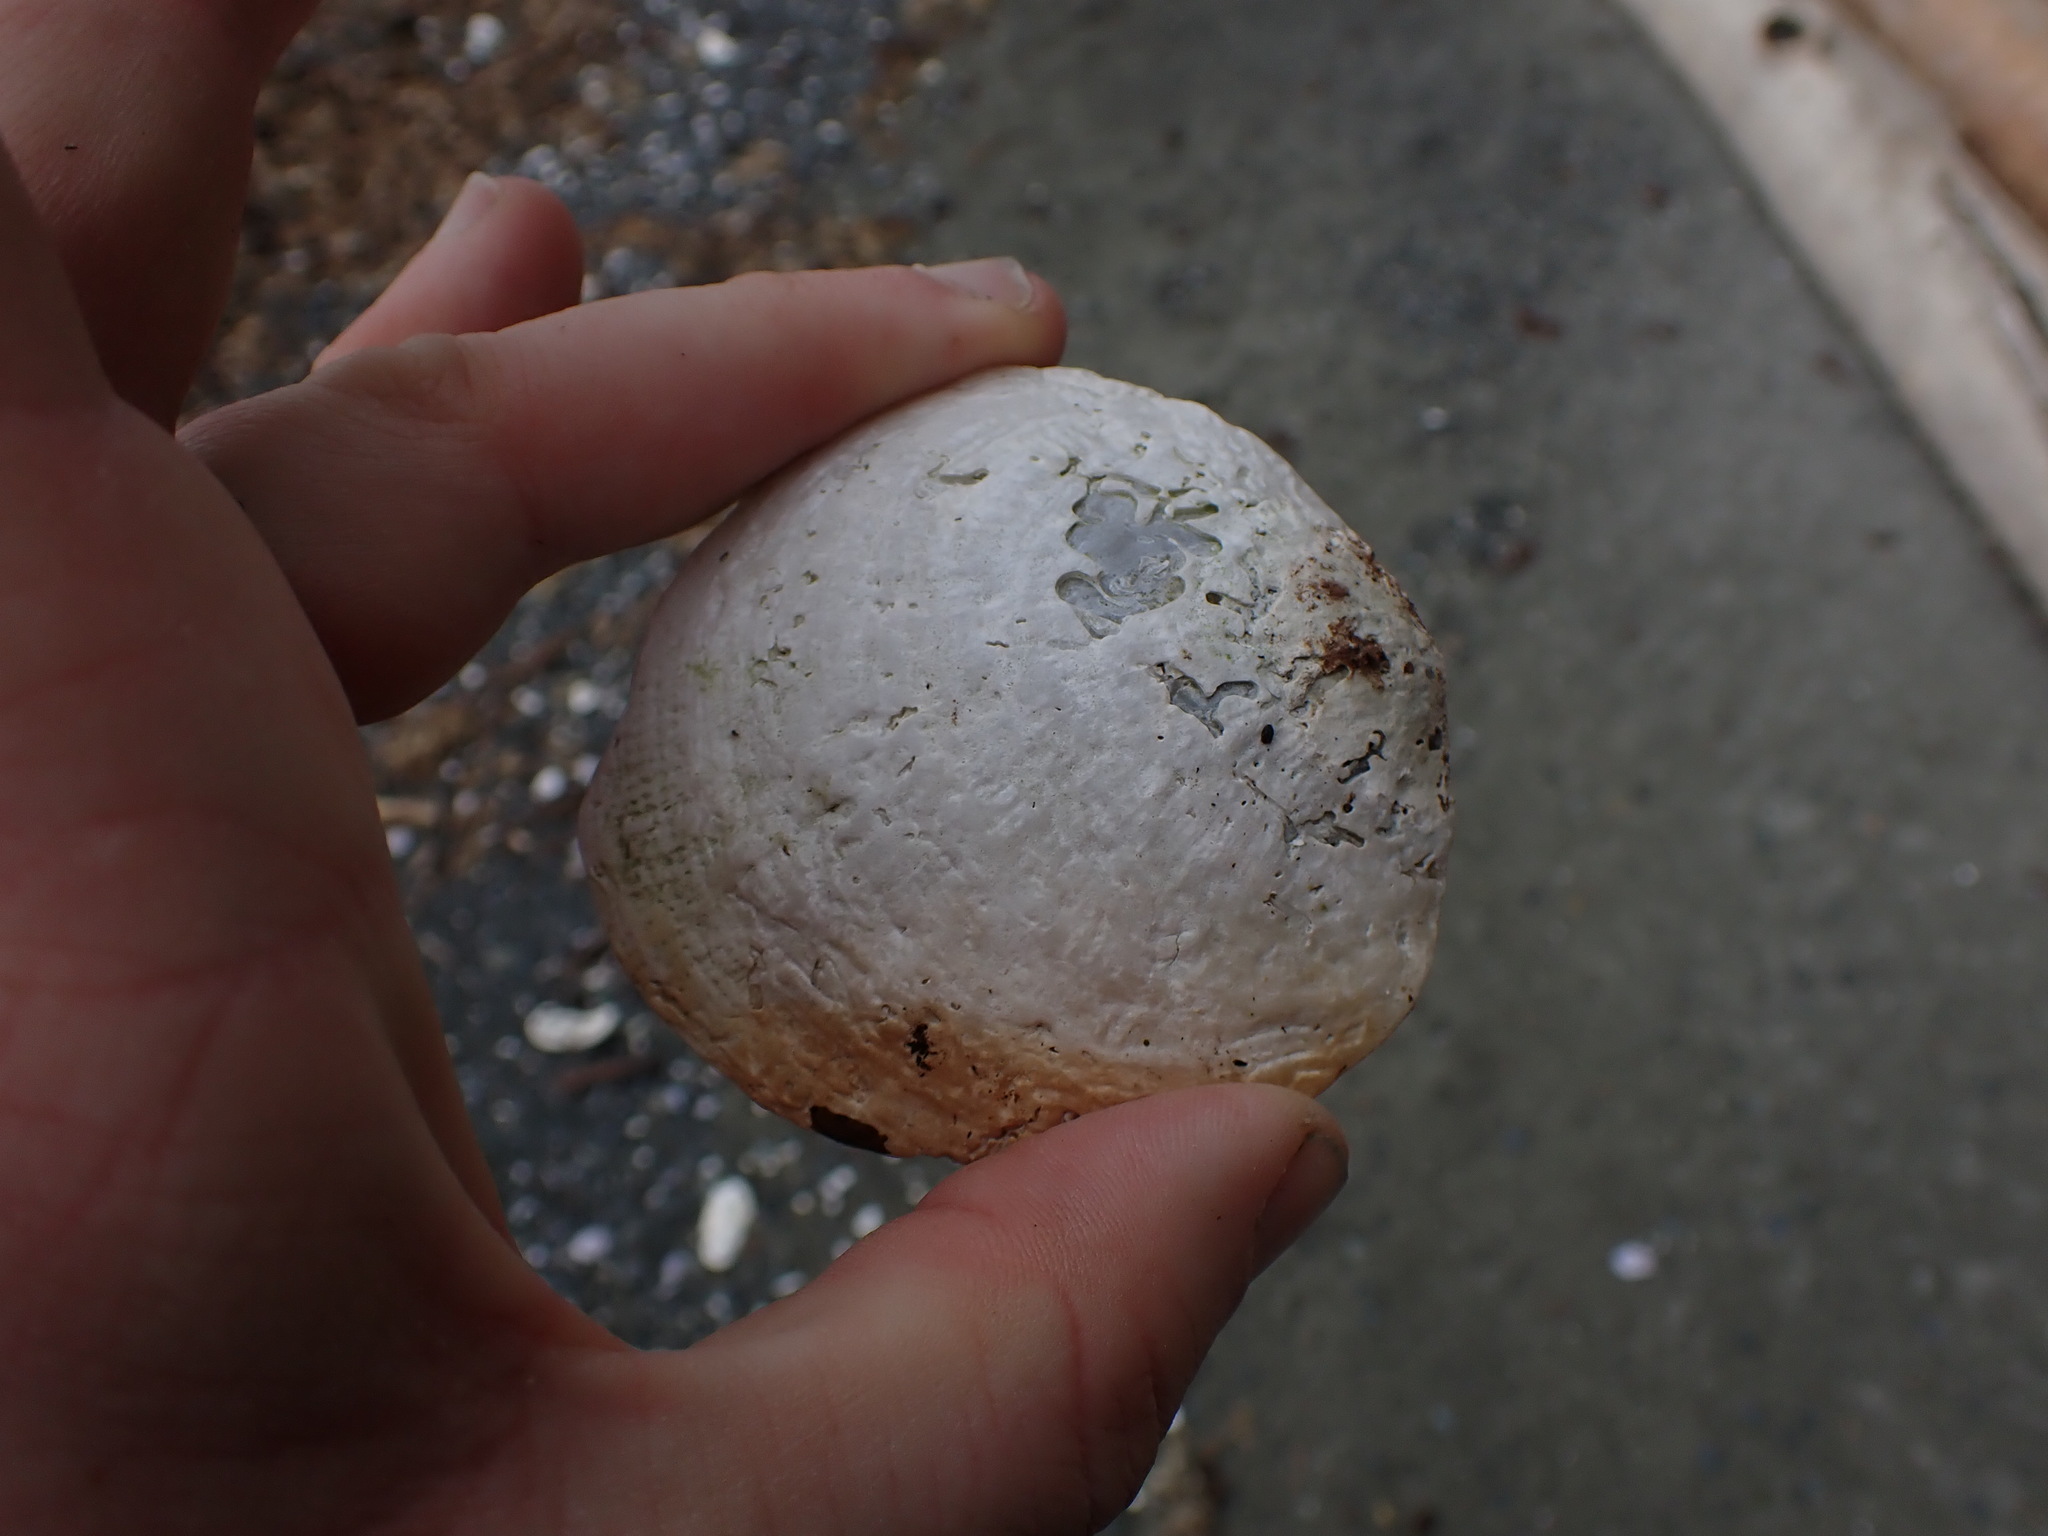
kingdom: Animalia
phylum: Mollusca
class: Bivalvia
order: Pectinida
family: Anomiidae
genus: Pododesmus
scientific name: Pododesmus macrochisma
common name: Alaska jingle
